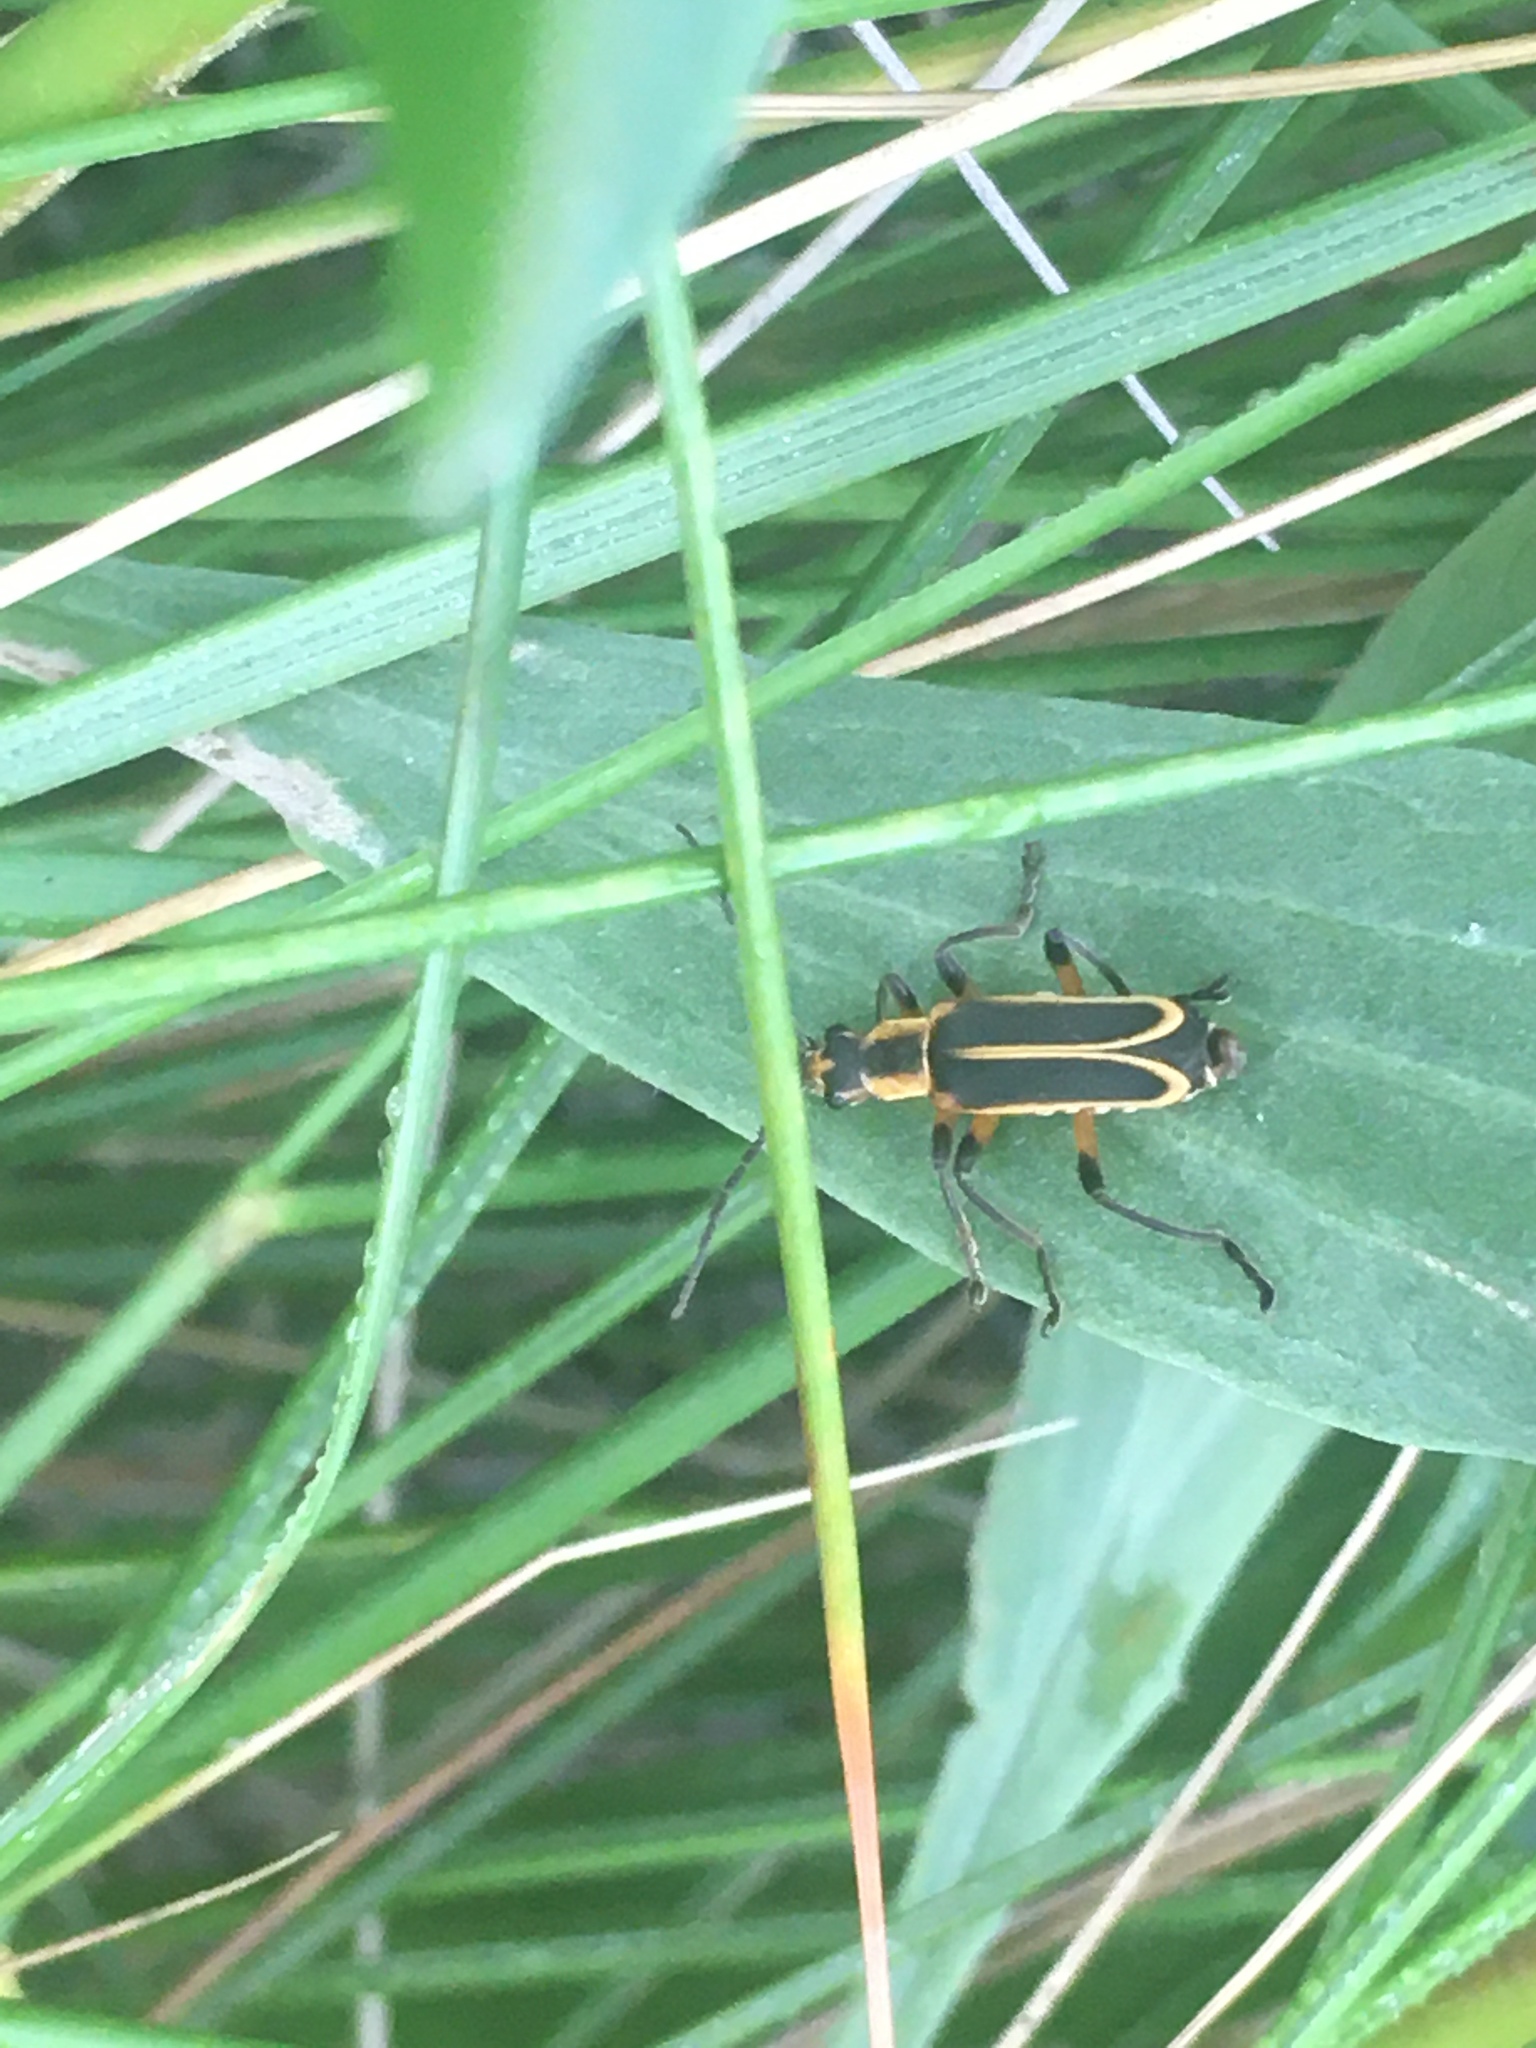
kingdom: Animalia
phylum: Arthropoda
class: Insecta
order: Coleoptera
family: Cantharidae
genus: Chauliognathus
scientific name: Chauliognathus marginatus
